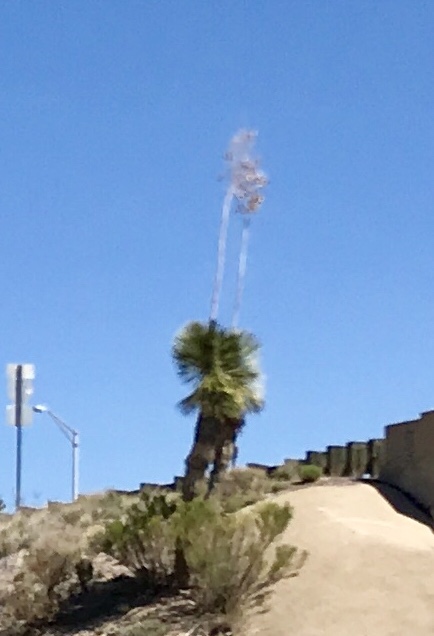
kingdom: Plantae
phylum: Tracheophyta
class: Liliopsida
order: Asparagales
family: Asparagaceae
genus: Yucca
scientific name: Yucca elata
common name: Palmella
